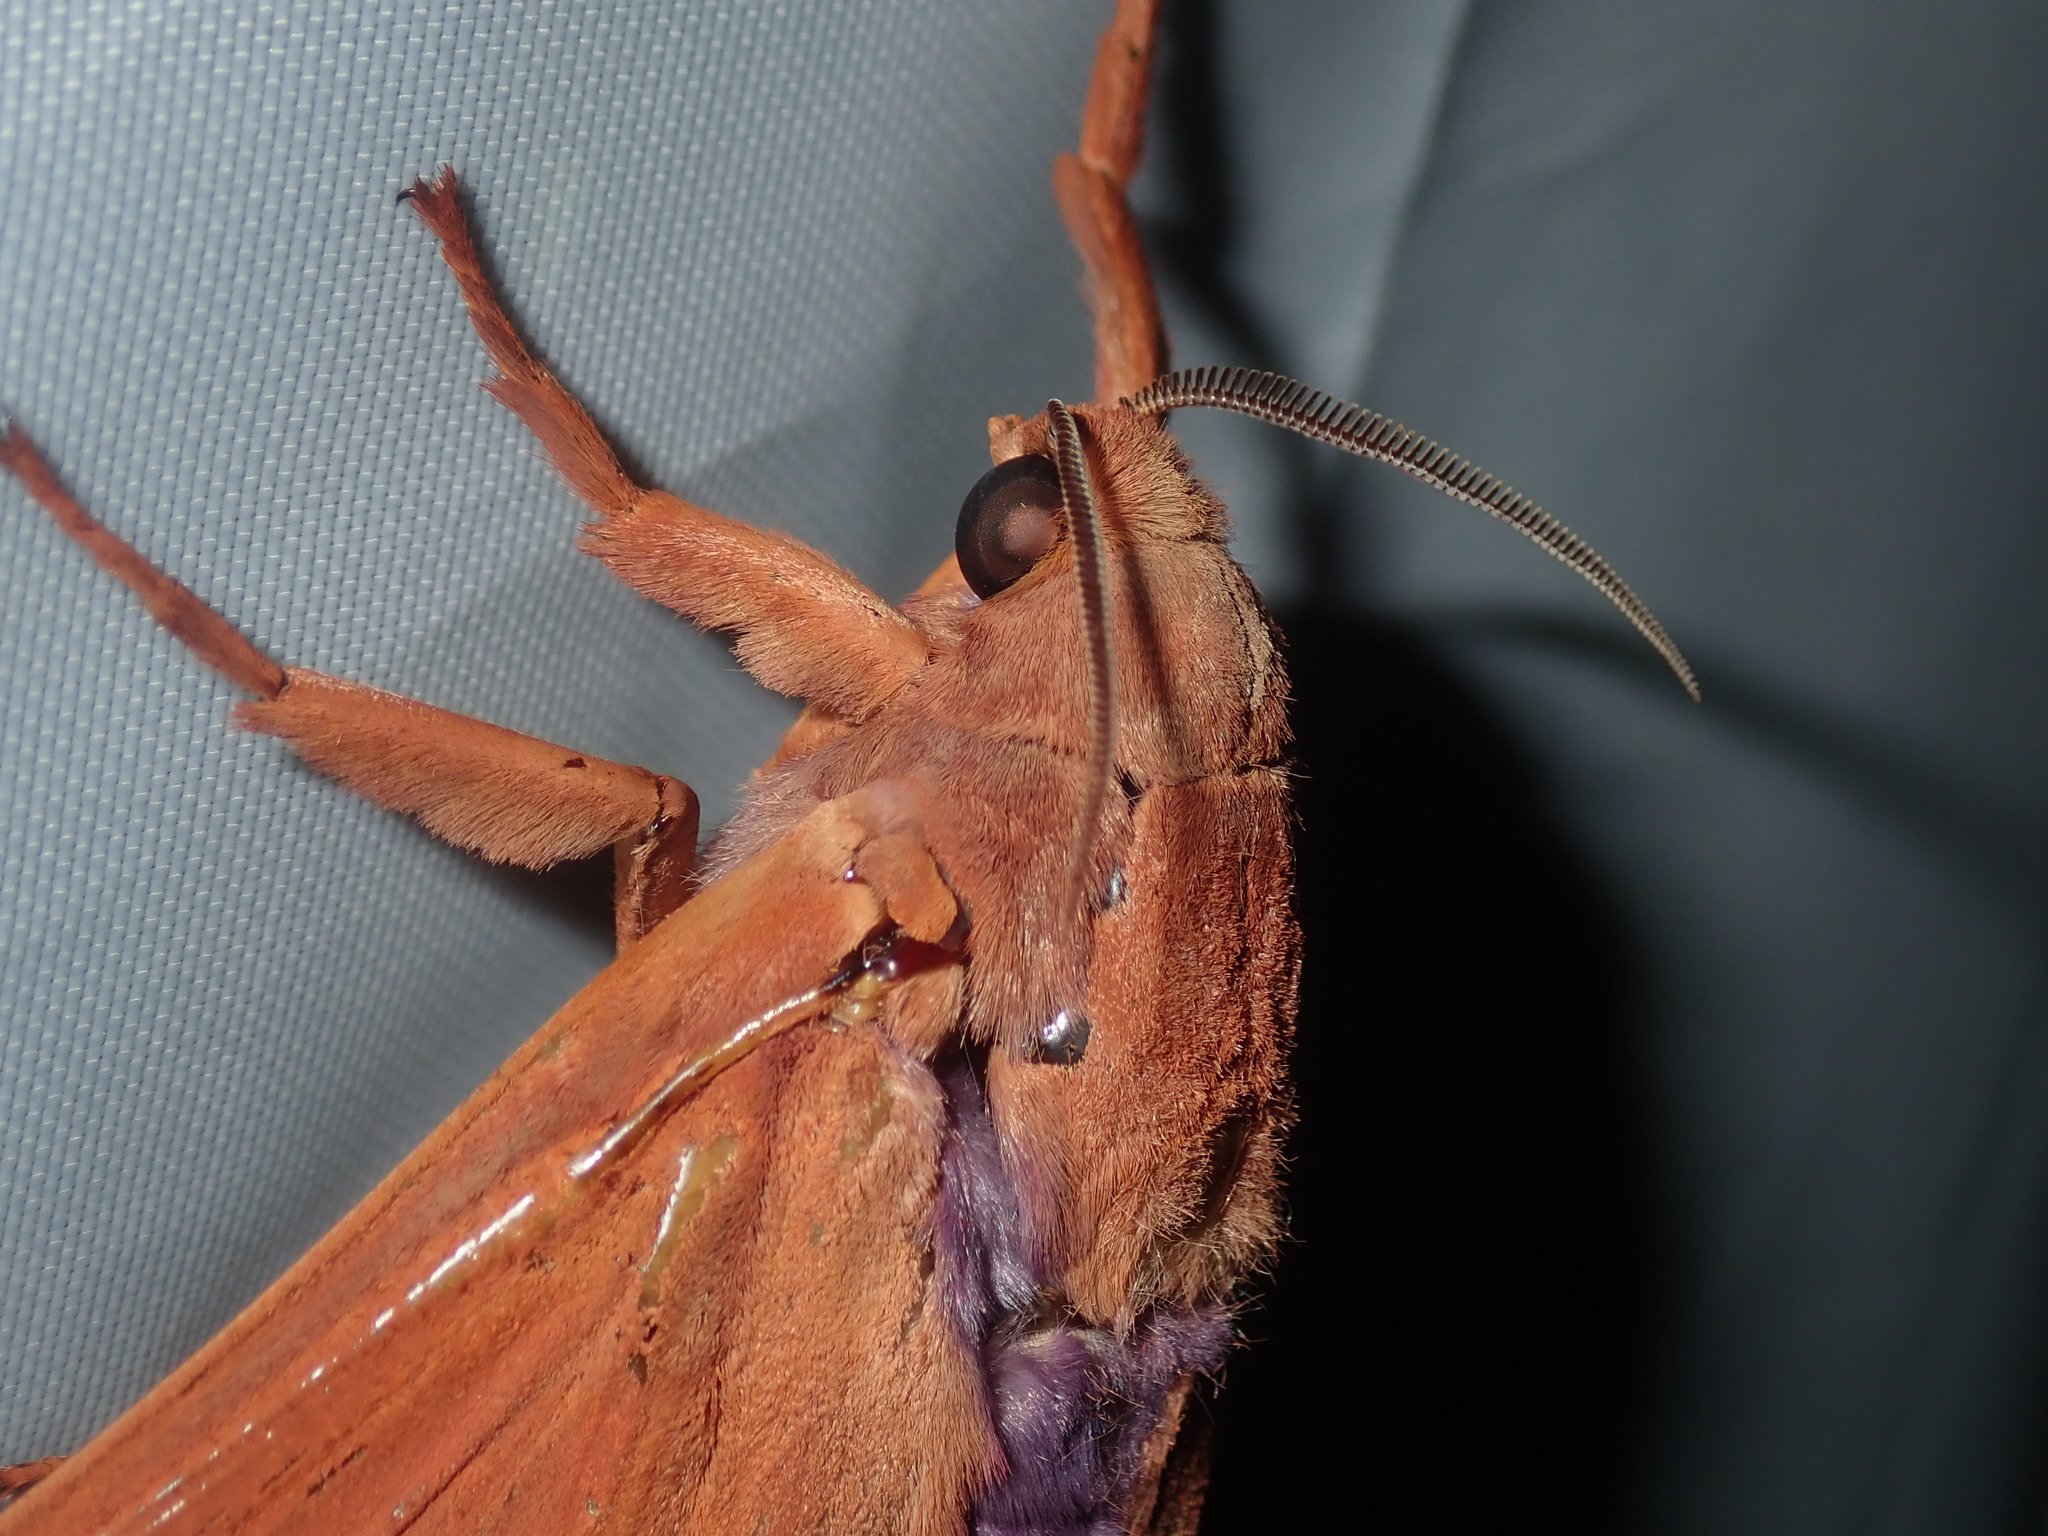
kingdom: Animalia
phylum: Arthropoda
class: Insecta
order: Lepidoptera
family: Hepialidae
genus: Abantiades
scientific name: Abantiades hyalinatus
